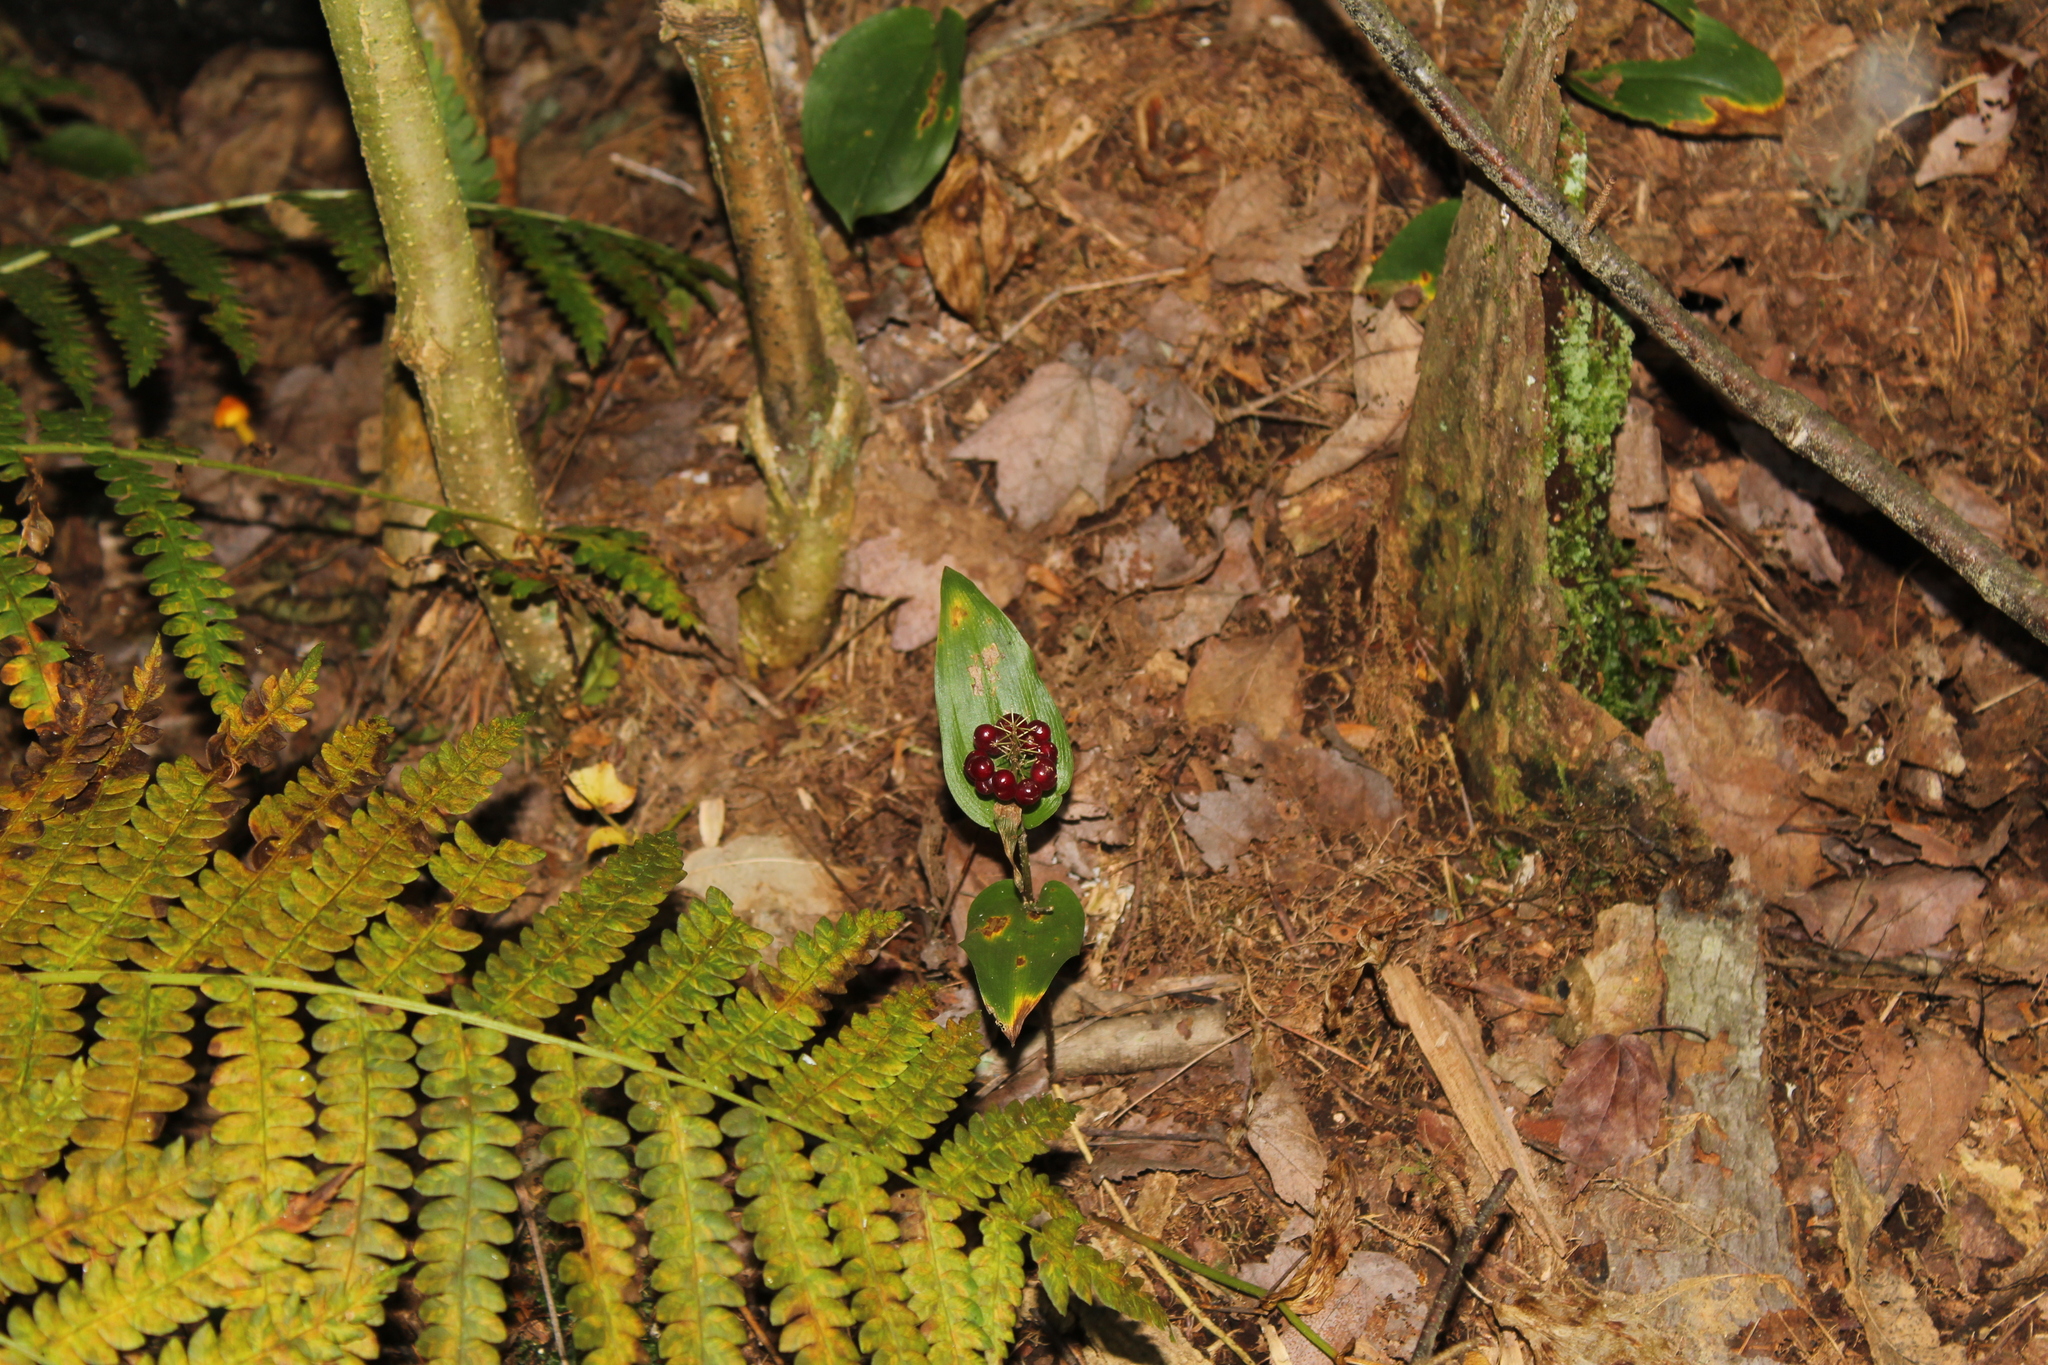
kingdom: Plantae
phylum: Tracheophyta
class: Liliopsida
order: Asparagales
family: Asparagaceae
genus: Maianthemum
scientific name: Maianthemum canadense
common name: False lily-of-the-valley
